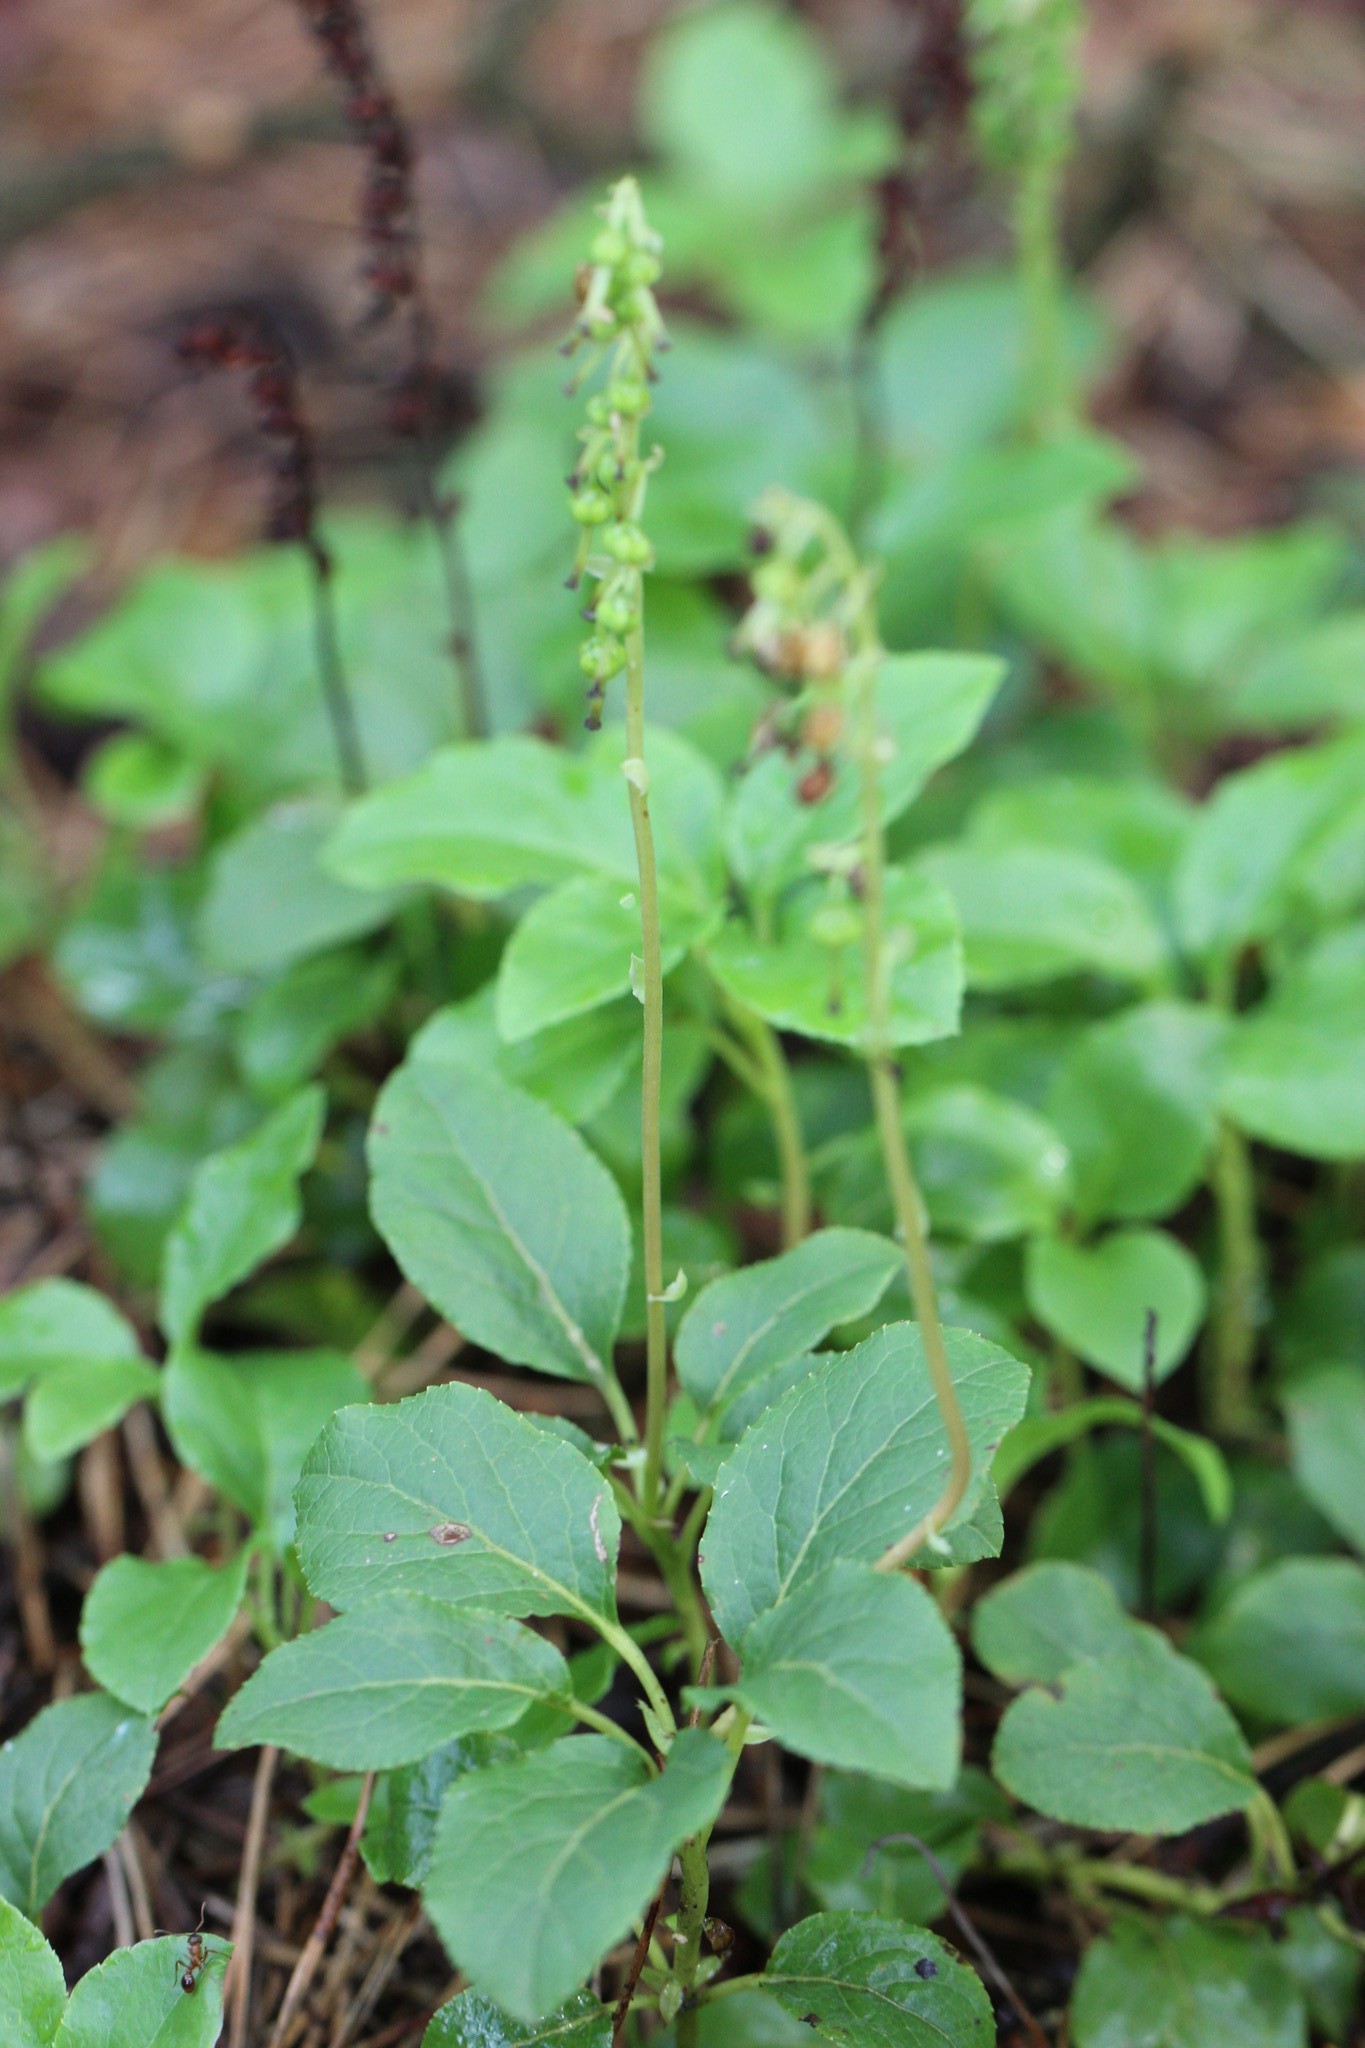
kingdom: Plantae
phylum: Tracheophyta
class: Magnoliopsida
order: Ericales
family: Ericaceae
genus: Orthilia
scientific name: Orthilia secunda
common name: One-sided orthilia
